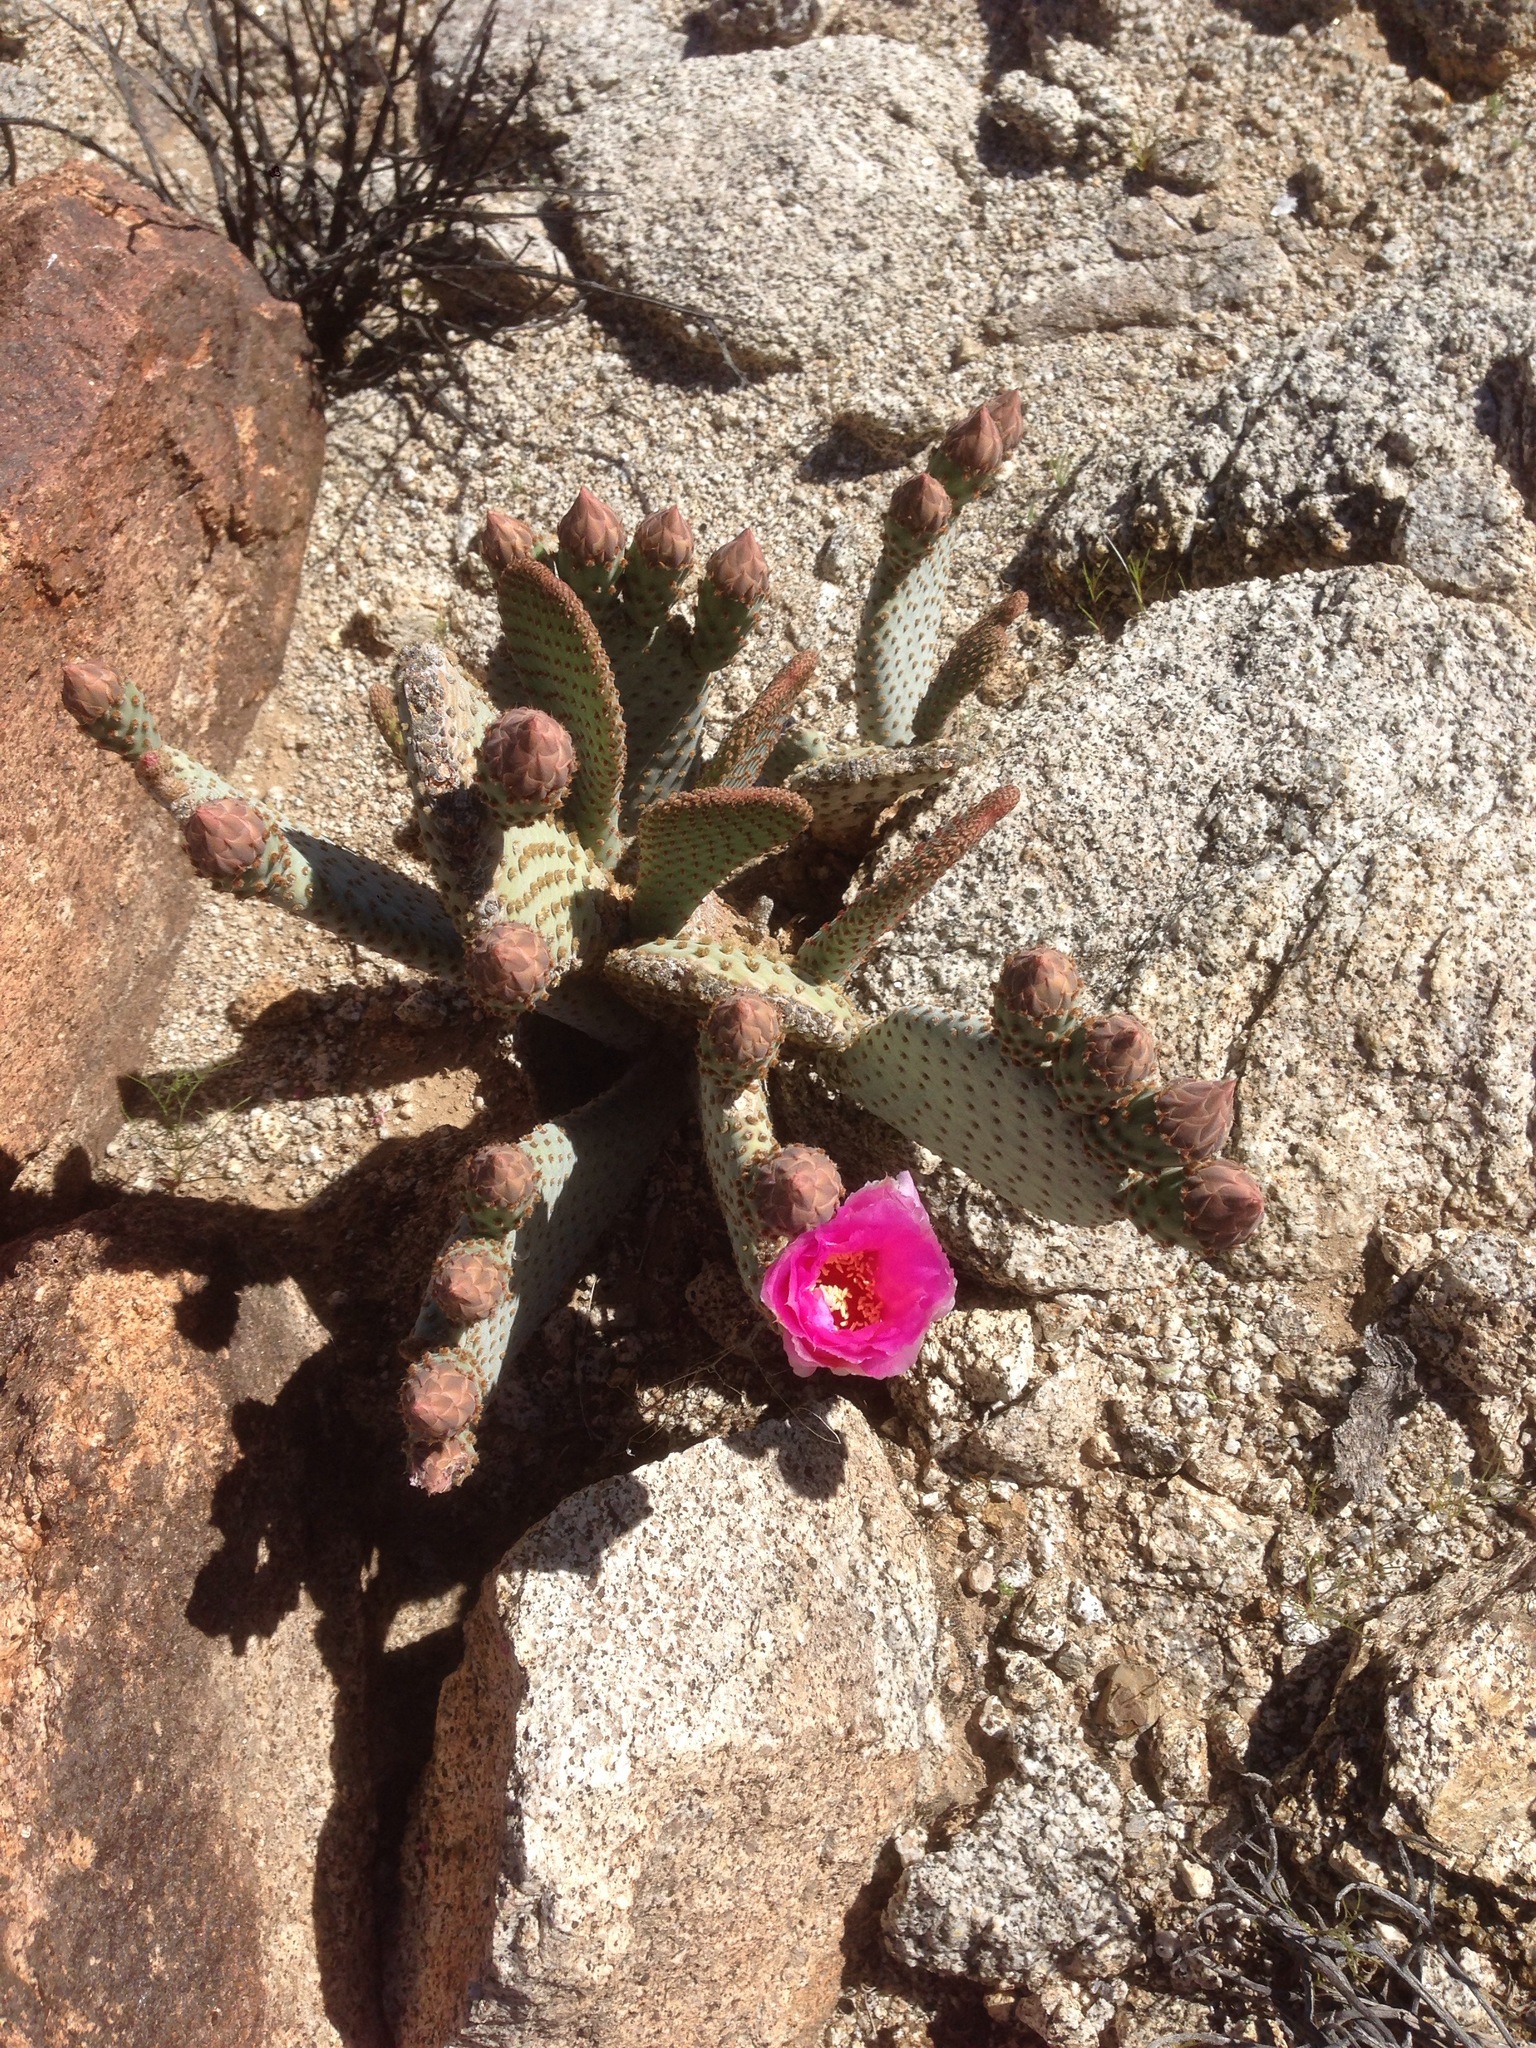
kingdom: Plantae
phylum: Tracheophyta
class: Magnoliopsida
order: Caryophyllales
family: Cactaceae
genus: Opuntia
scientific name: Opuntia basilaris
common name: Beavertail prickly-pear
